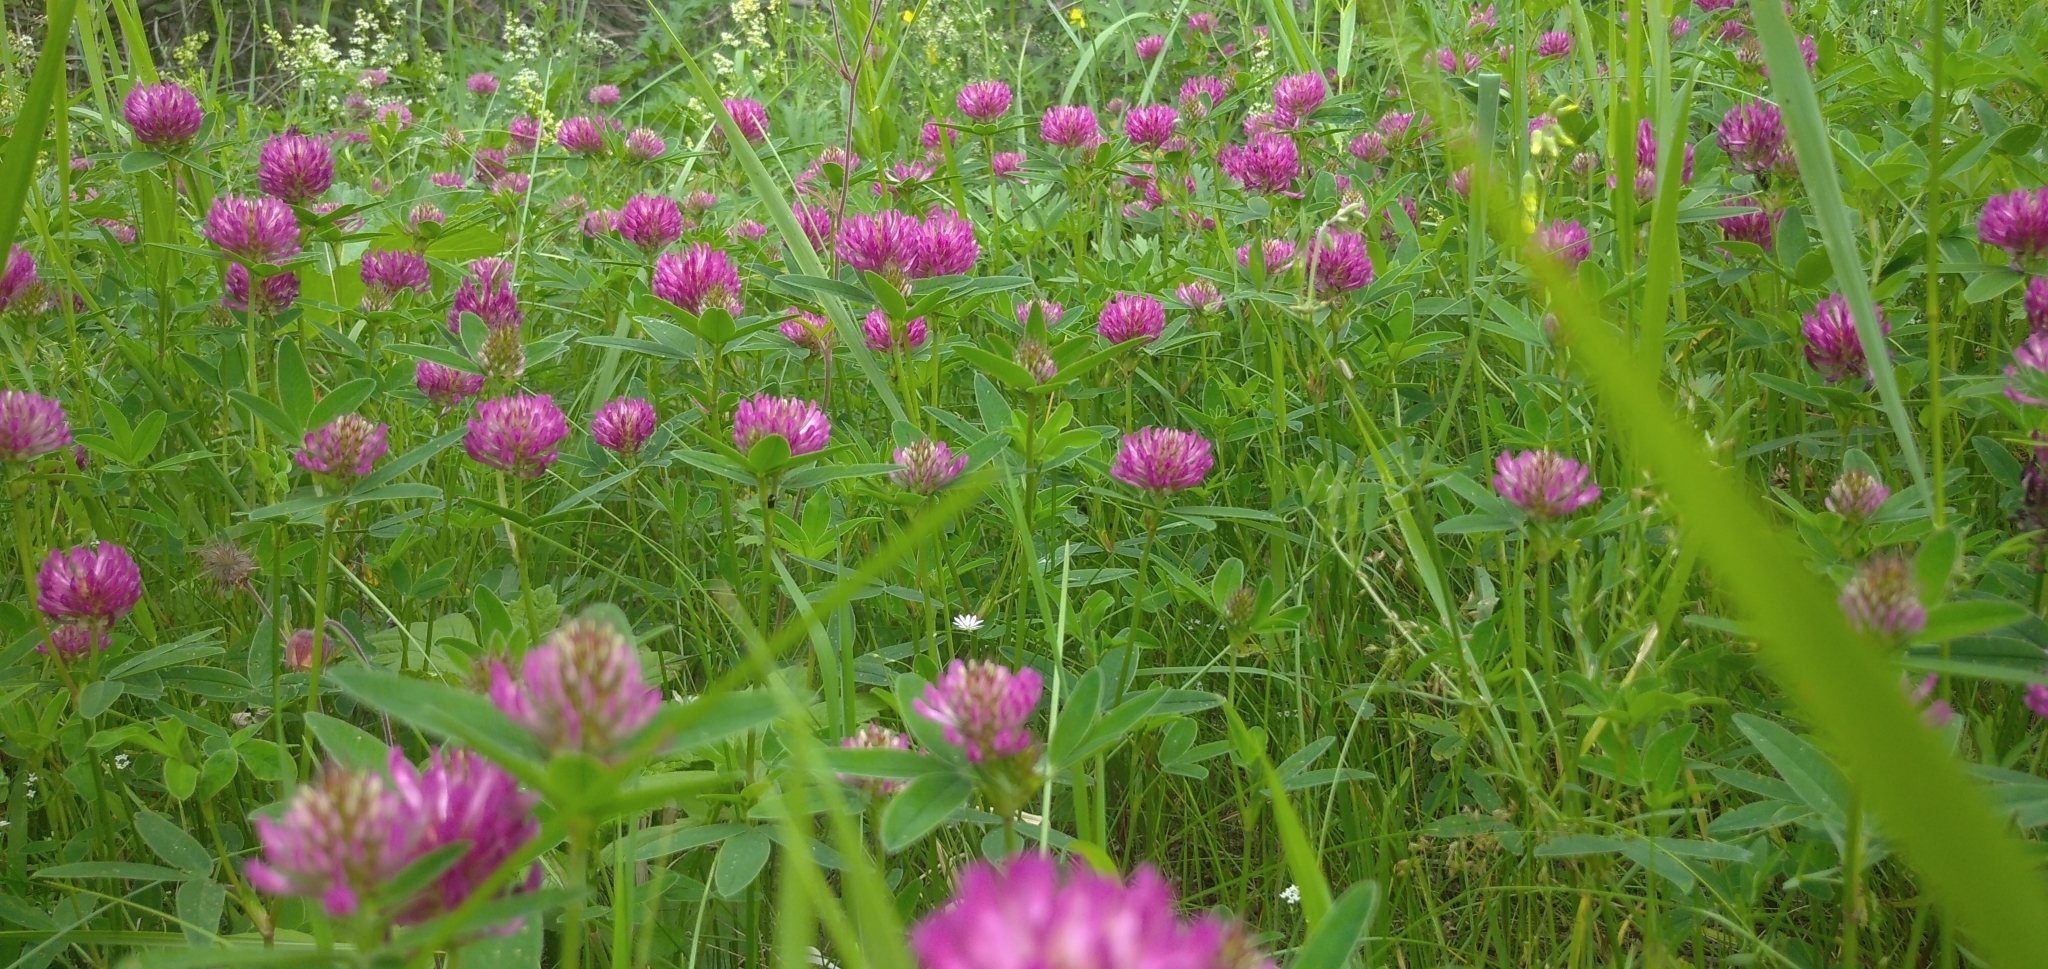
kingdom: Plantae
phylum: Tracheophyta
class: Magnoliopsida
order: Fabales
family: Fabaceae
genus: Trifolium
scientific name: Trifolium medium
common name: Zigzag clover
